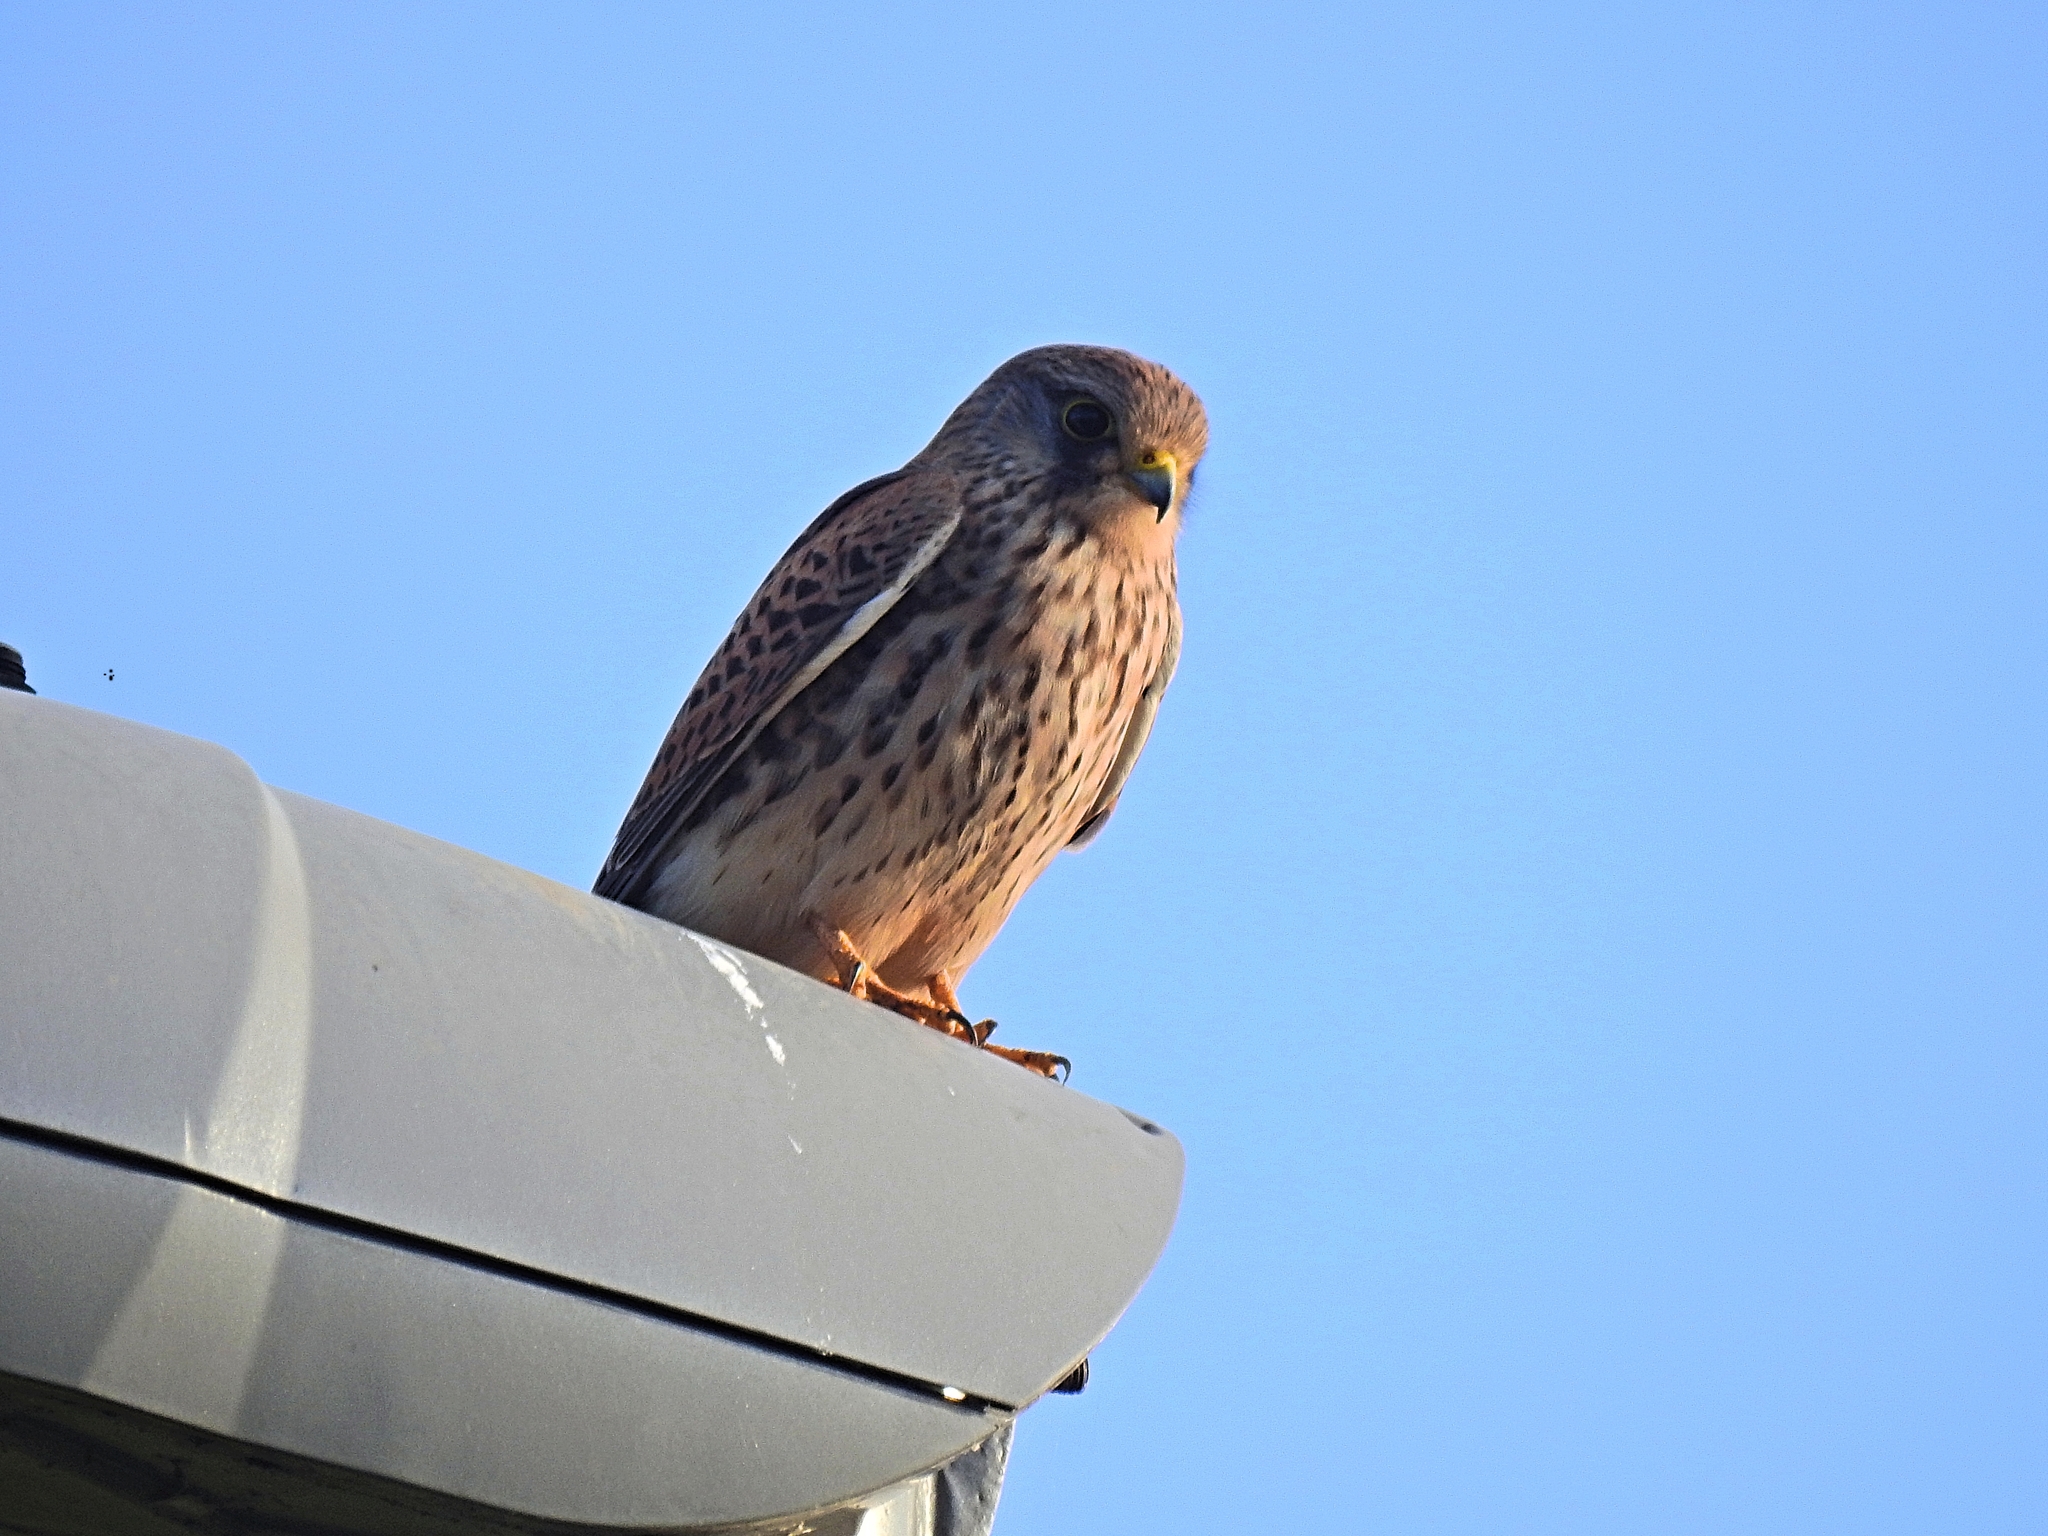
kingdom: Animalia
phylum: Chordata
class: Aves
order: Falconiformes
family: Falconidae
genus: Falco
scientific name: Falco tinnunculus
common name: Common kestrel
